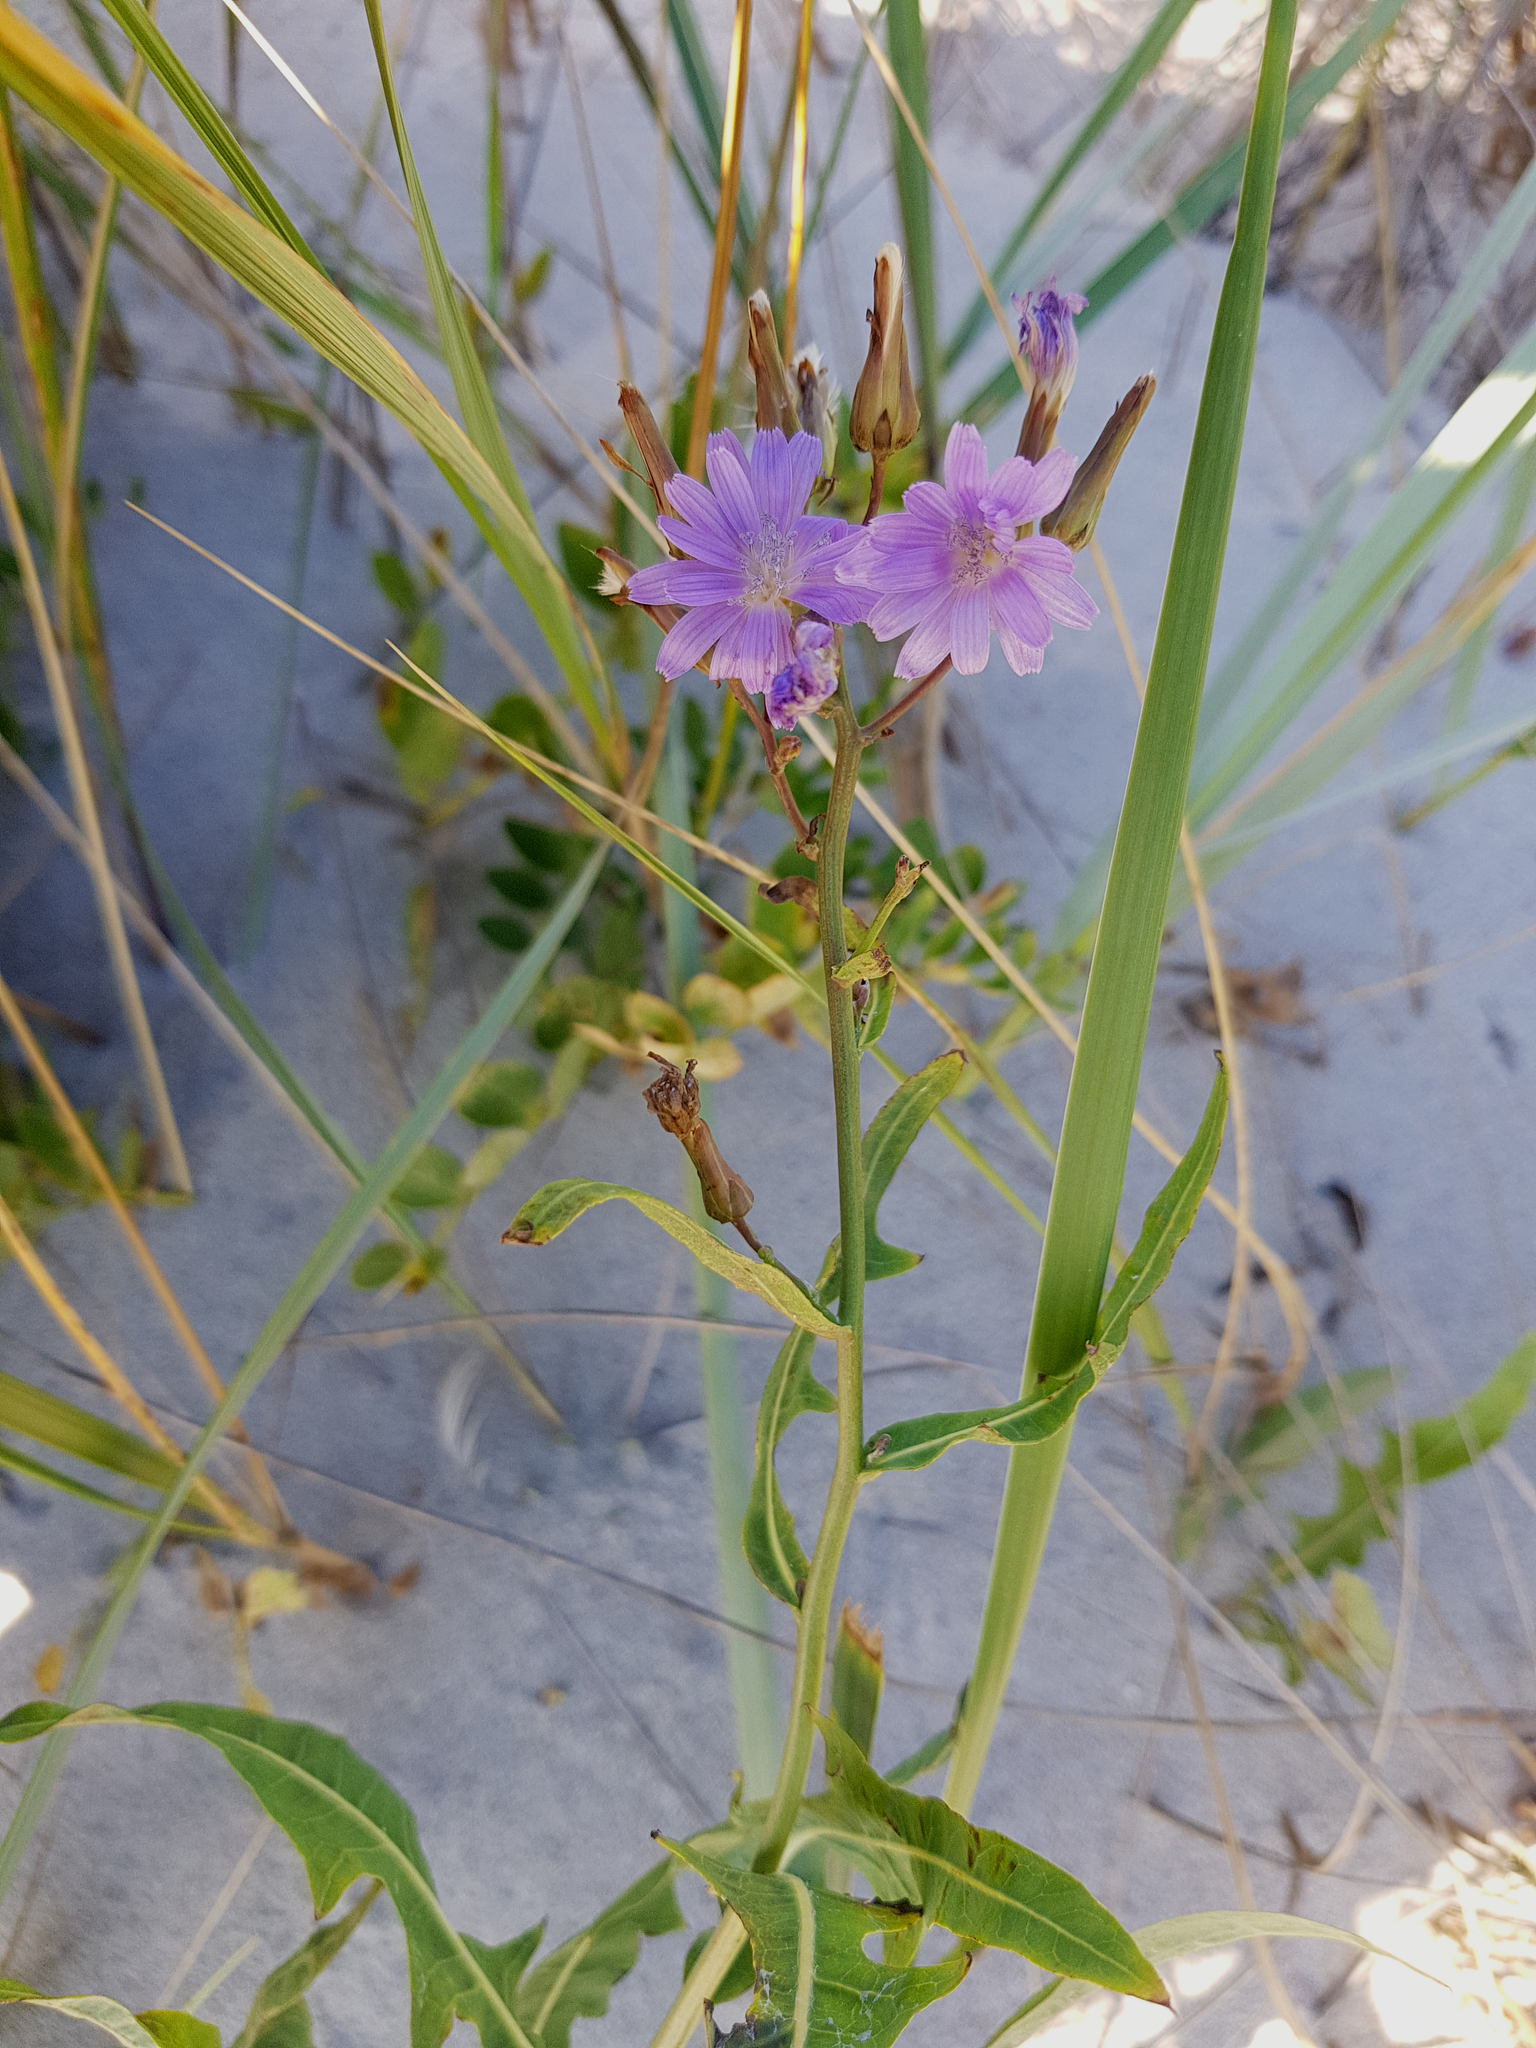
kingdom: Plantae
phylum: Tracheophyta
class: Magnoliopsida
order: Asterales
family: Asteraceae
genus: Lactuca
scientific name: Lactuca tatarica
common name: Blue lettuce
